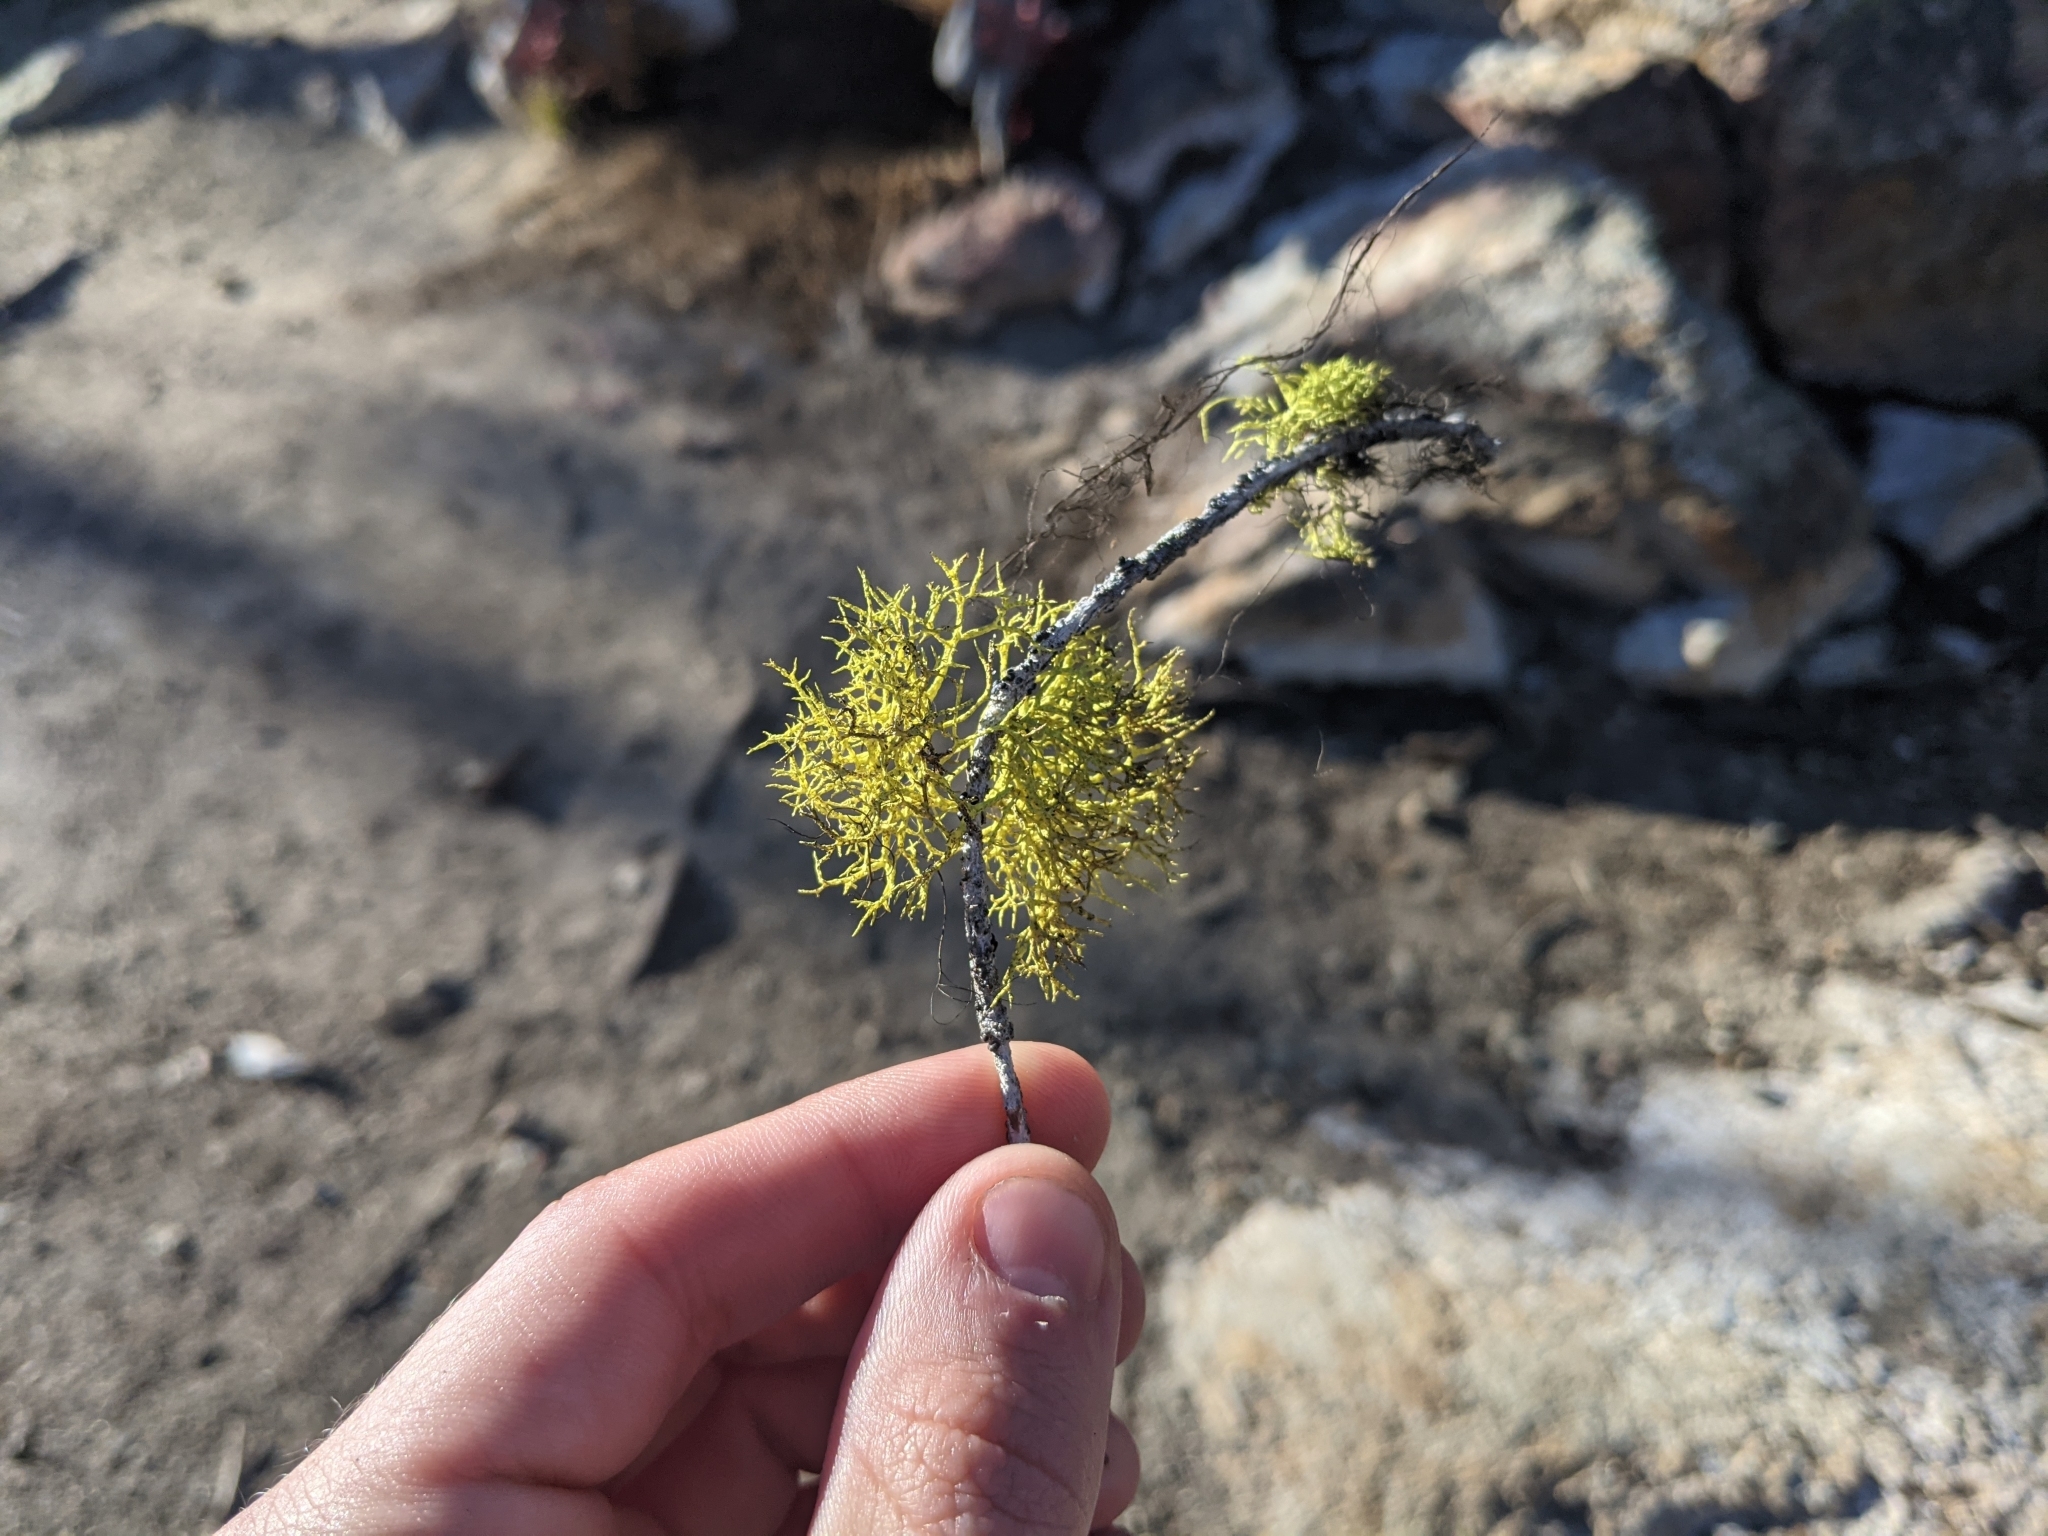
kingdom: Fungi
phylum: Ascomycota
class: Lecanoromycetes
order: Lecanorales
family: Parmeliaceae
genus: Letharia
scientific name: Letharia vulpina
